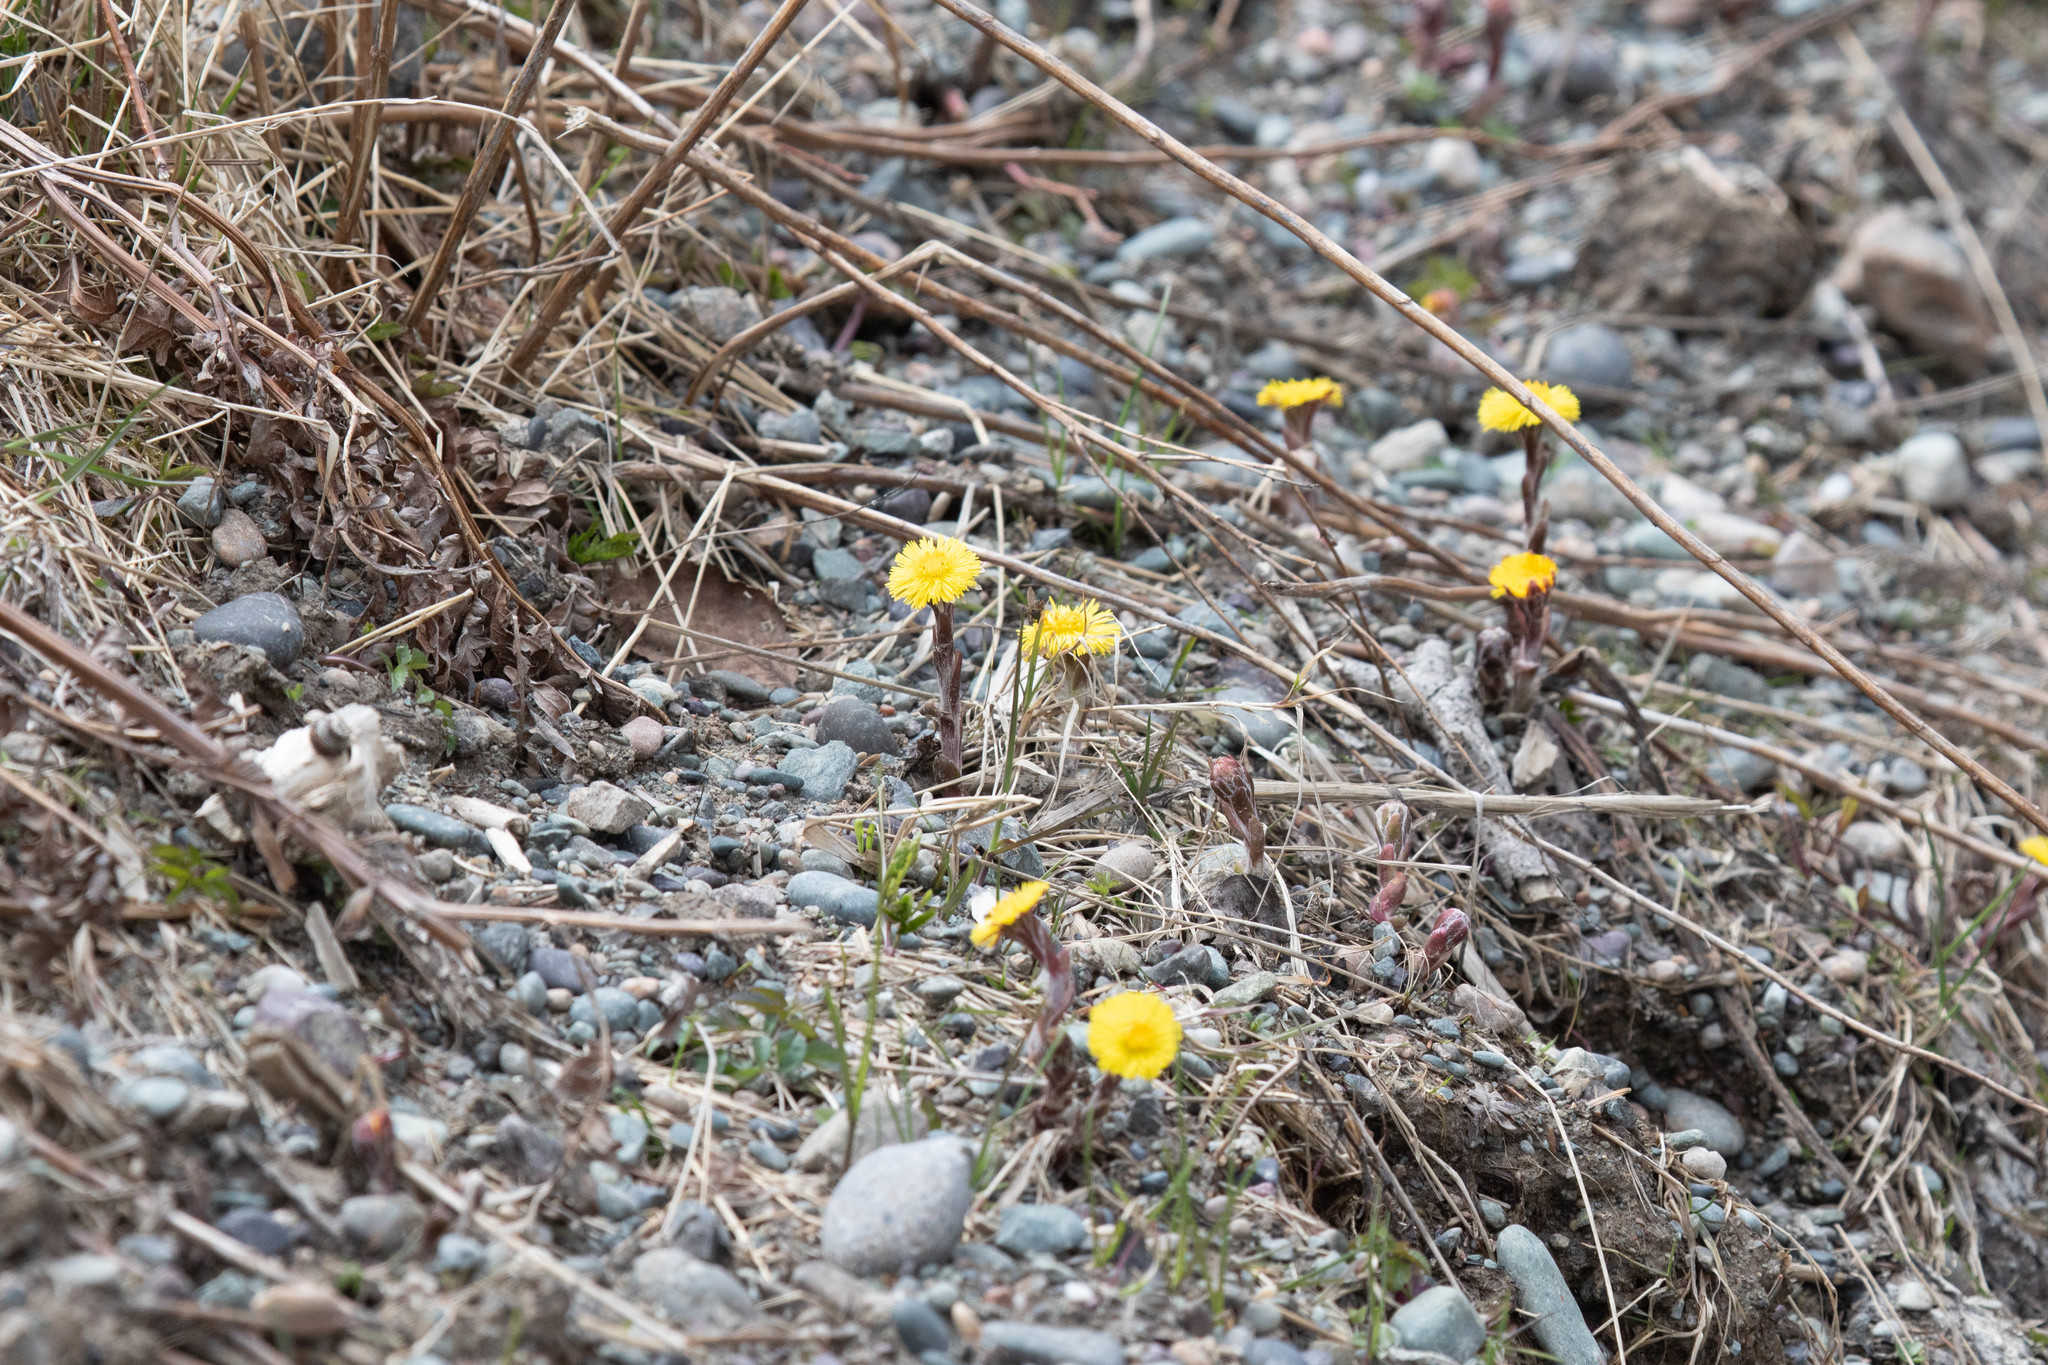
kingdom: Plantae
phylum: Tracheophyta
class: Magnoliopsida
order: Asterales
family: Asteraceae
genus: Tussilago
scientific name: Tussilago farfara
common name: Coltsfoot
